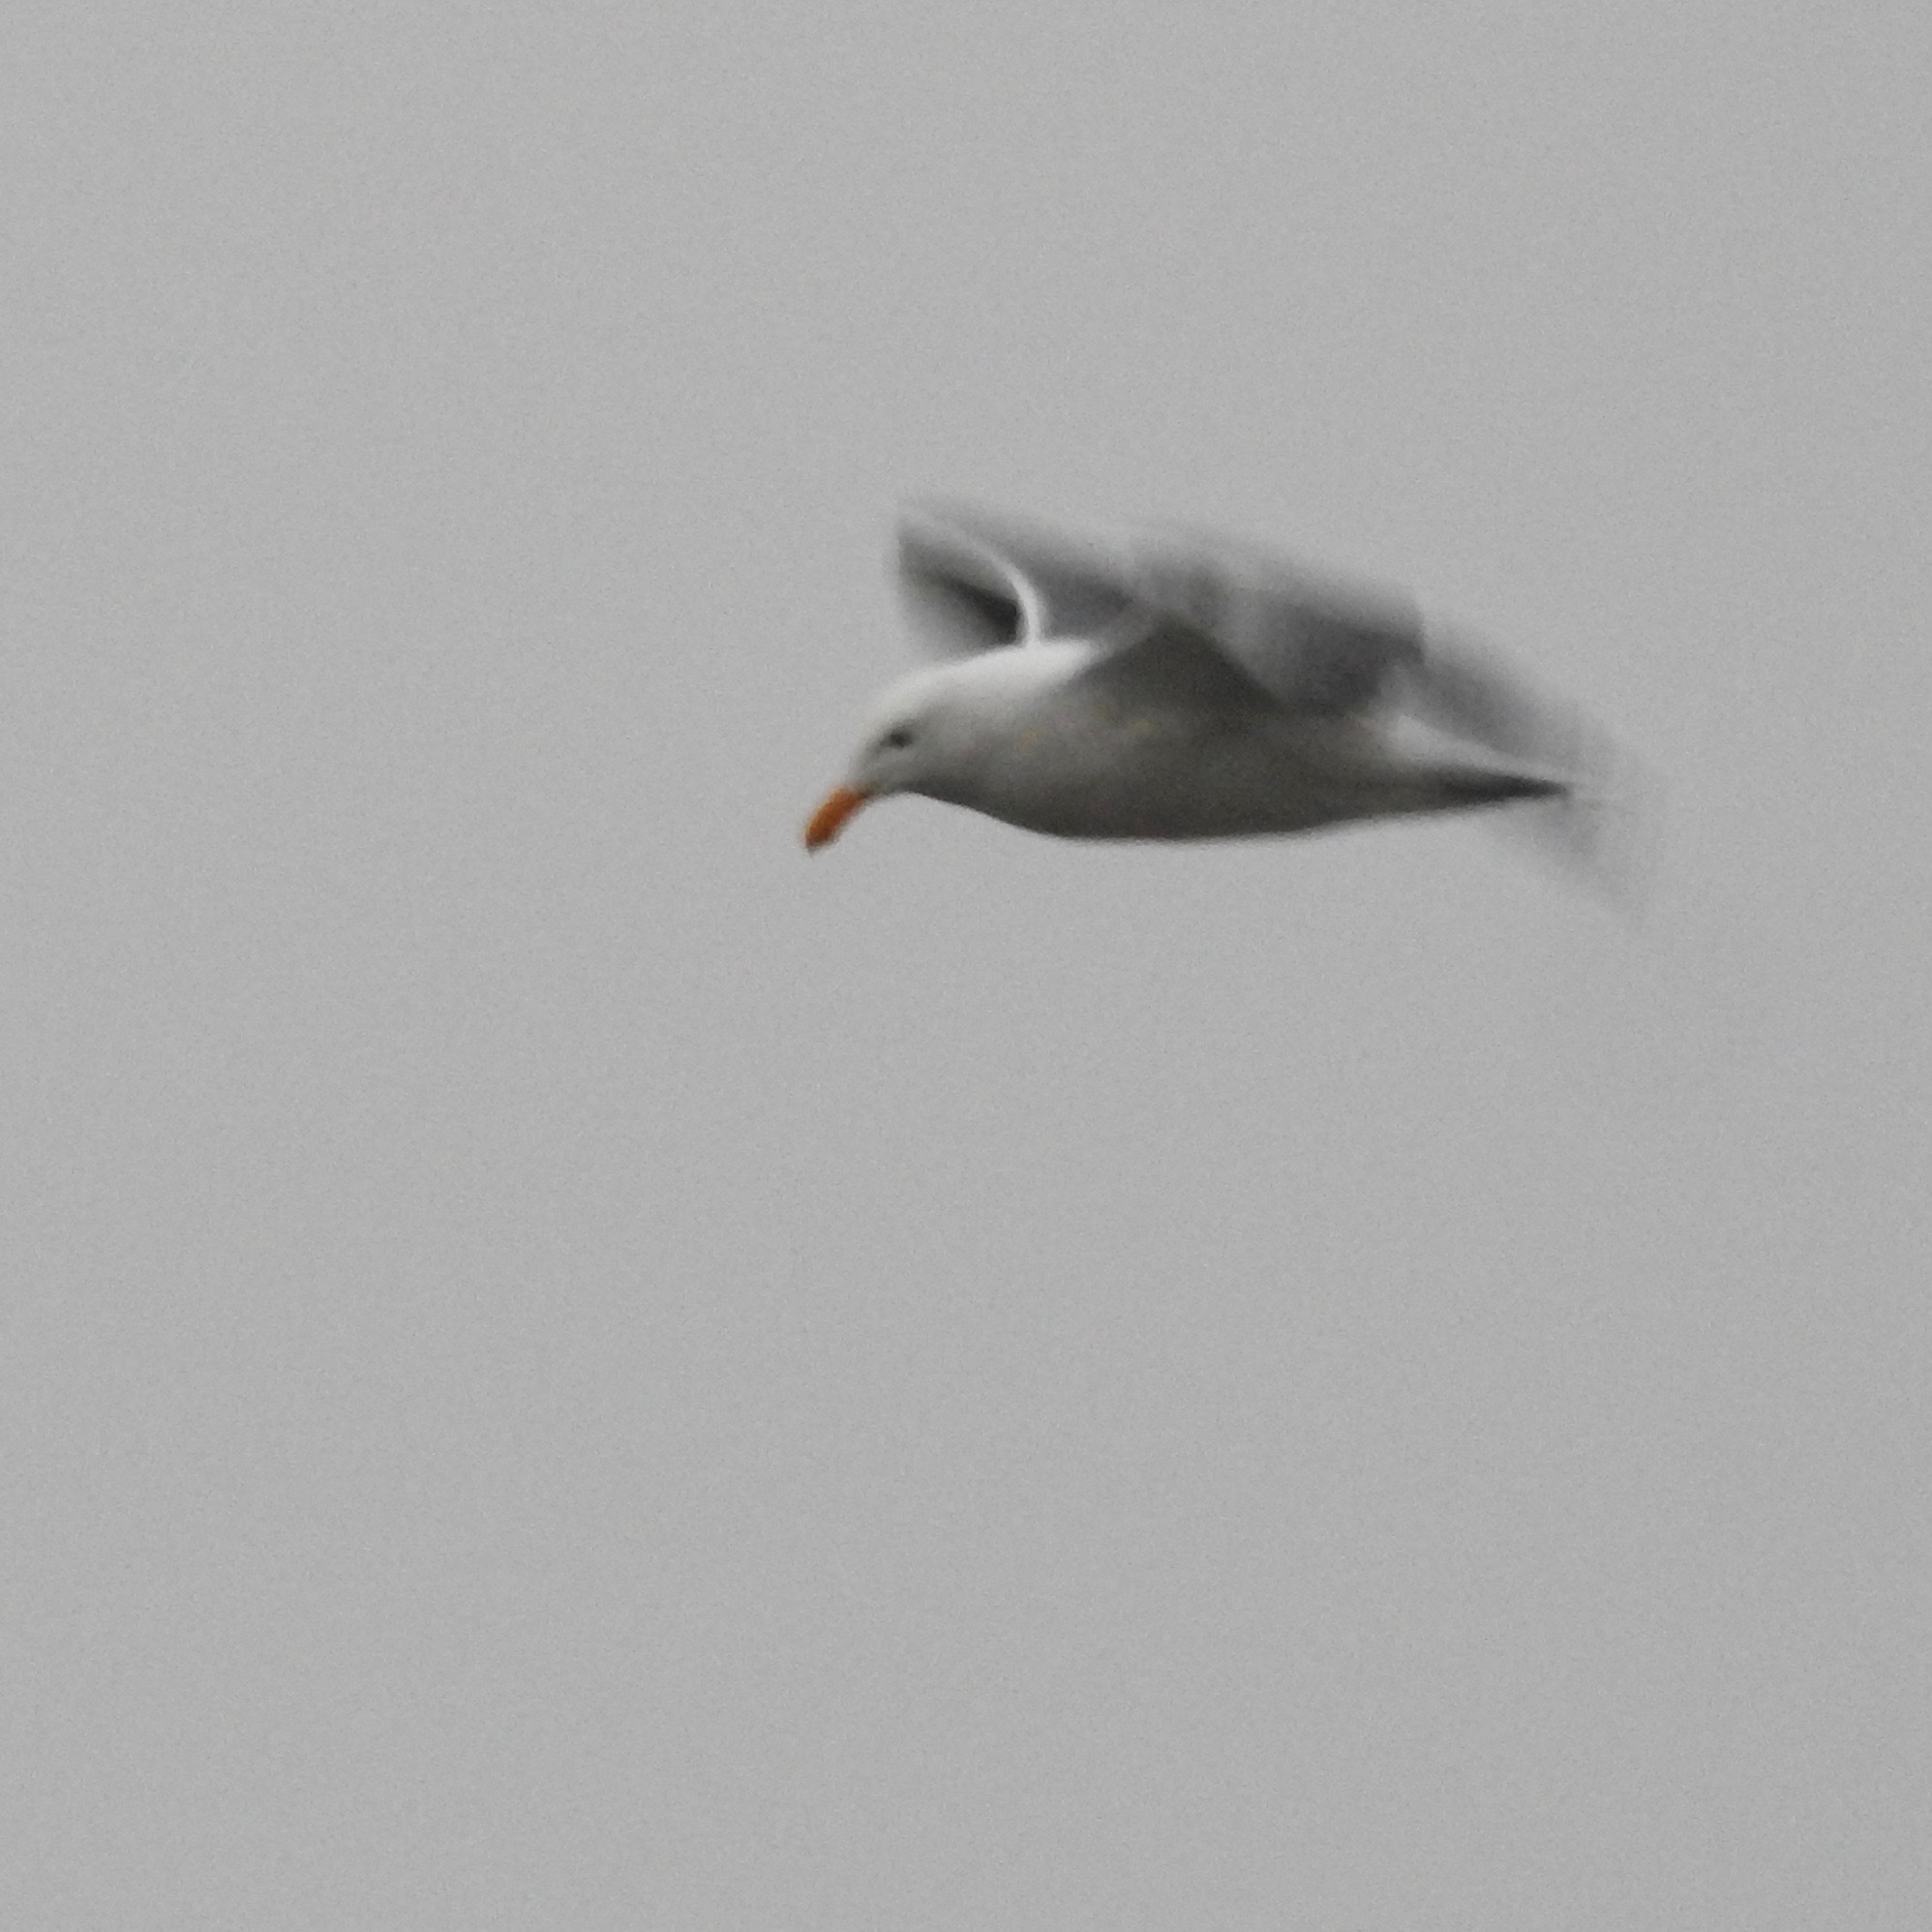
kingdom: Animalia
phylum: Chordata
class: Aves
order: Charadriiformes
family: Laridae
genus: Larus
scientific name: Larus occidentalis
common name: Western gull
